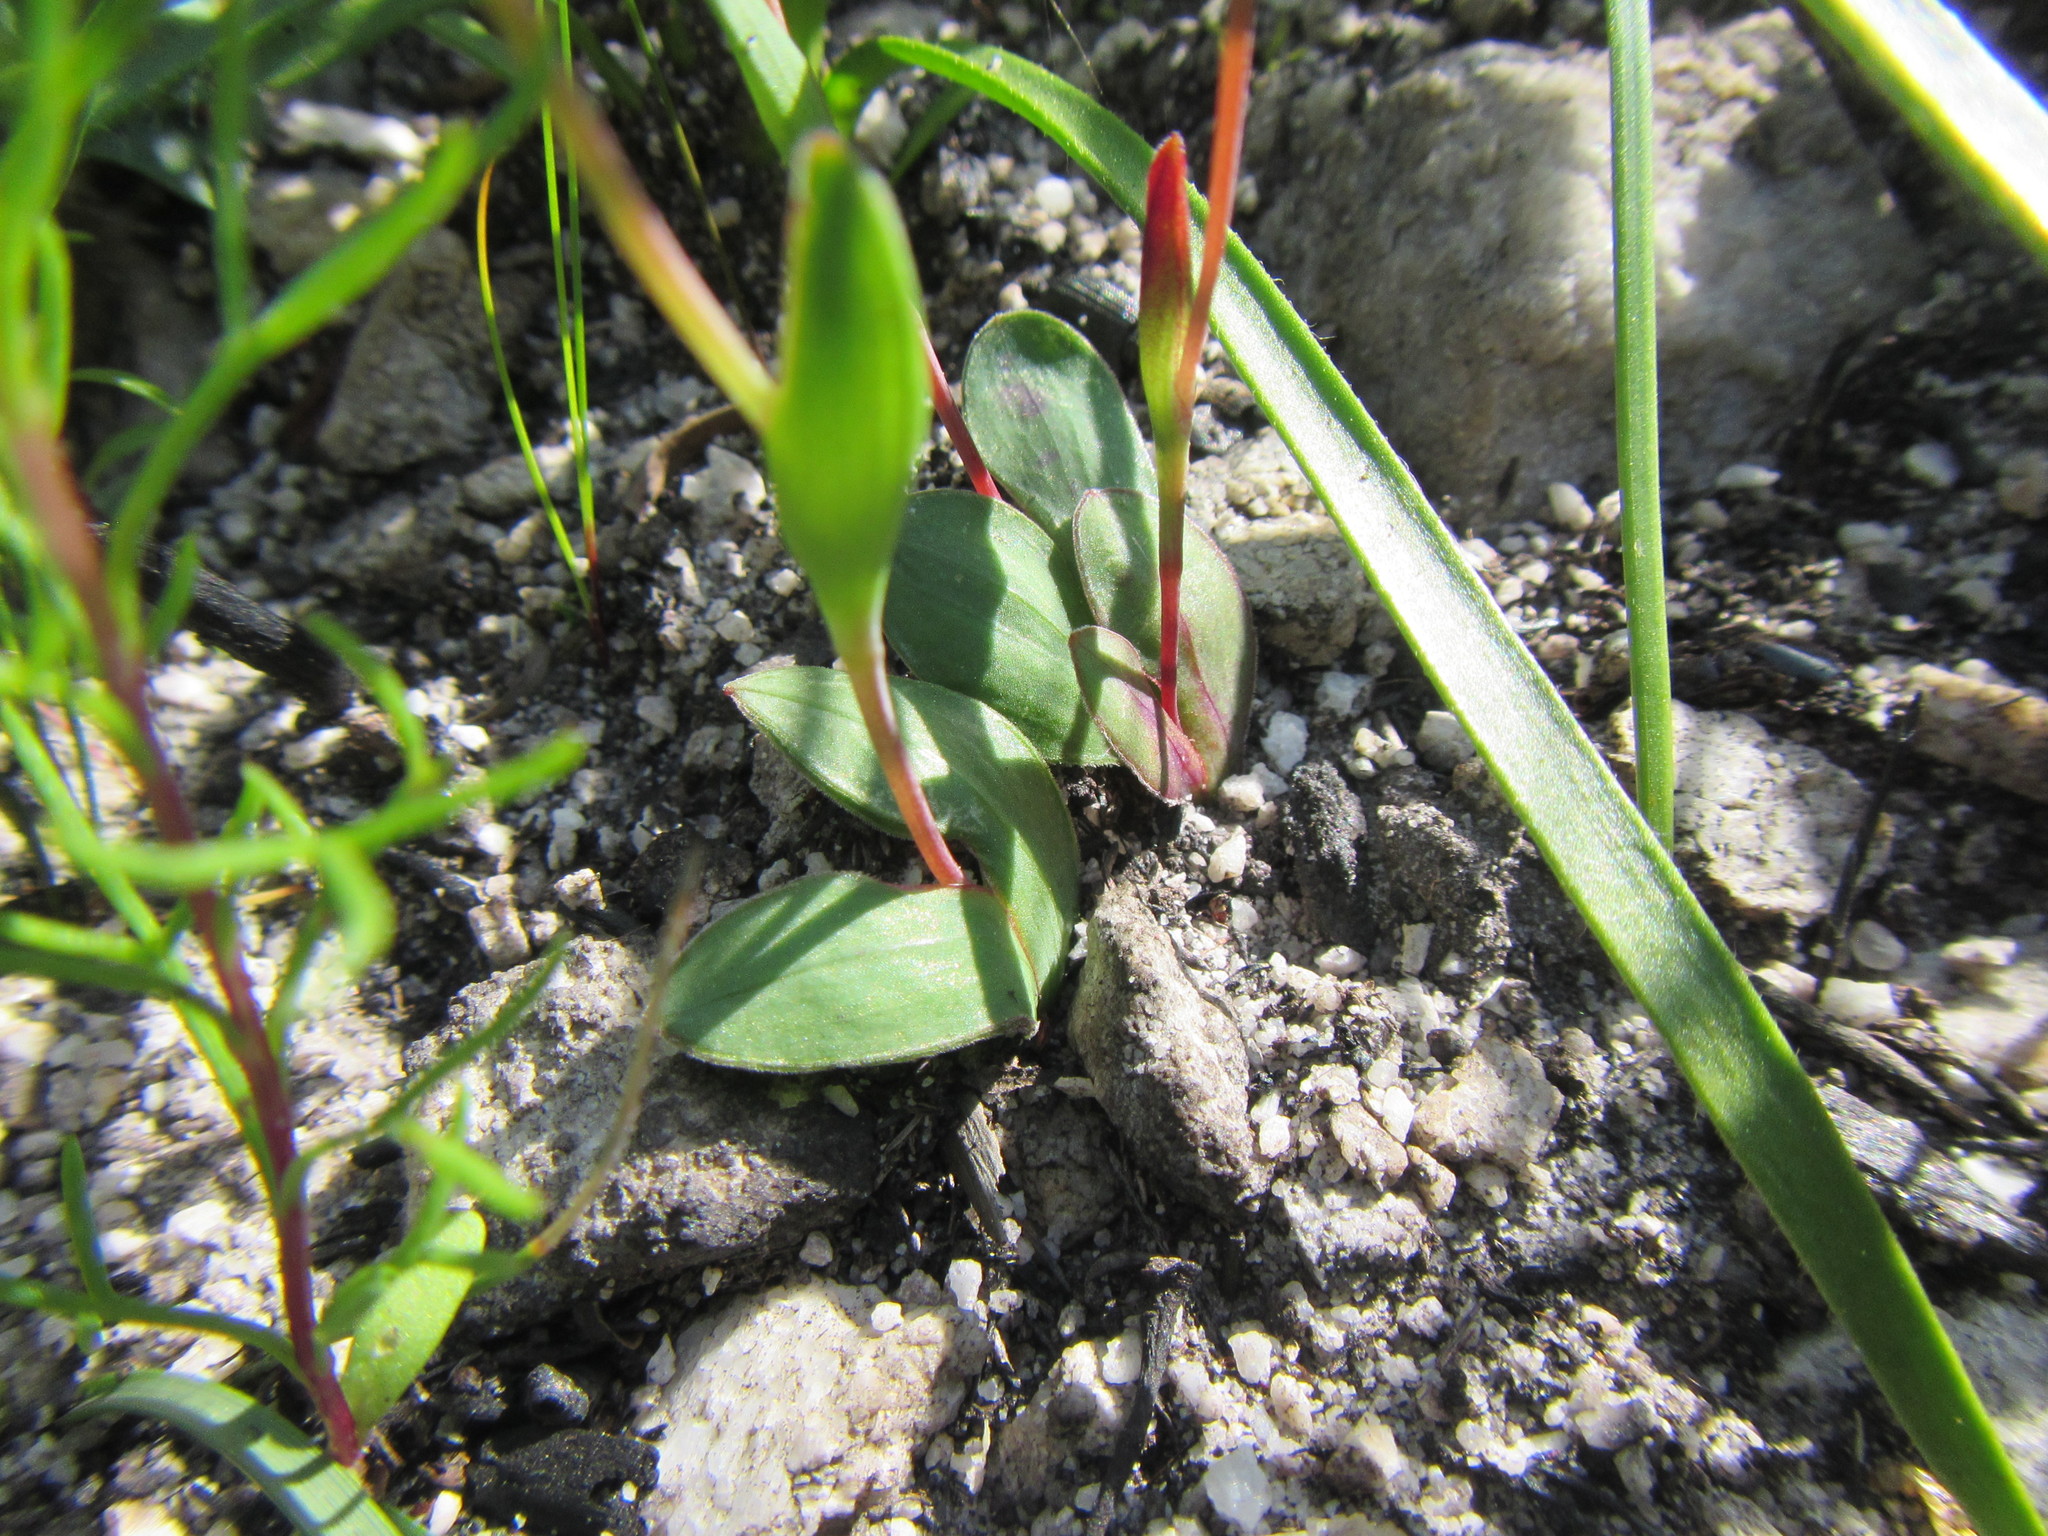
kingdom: Plantae
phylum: Tracheophyta
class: Liliopsida
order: Asparagales
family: Iridaceae
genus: Geissorhiza
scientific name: Geissorhiza ovata
